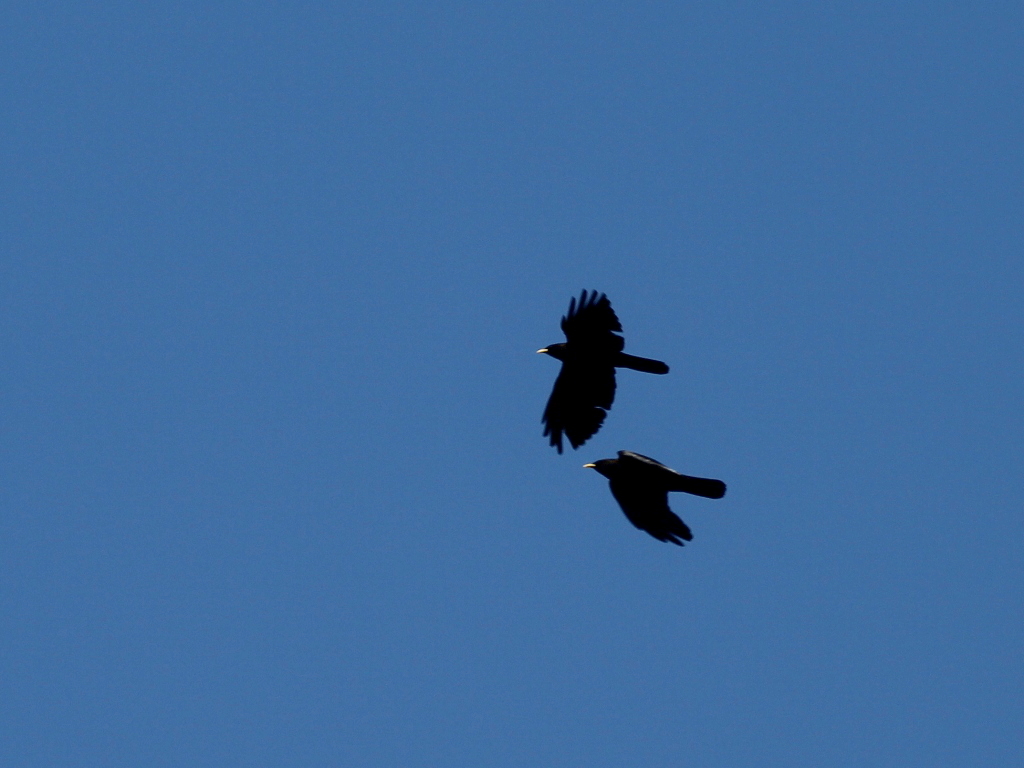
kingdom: Animalia
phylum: Chordata
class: Aves
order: Passeriformes
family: Corvidae
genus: Pyrrhocorax
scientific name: Pyrrhocorax graculus
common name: Alpine chough
